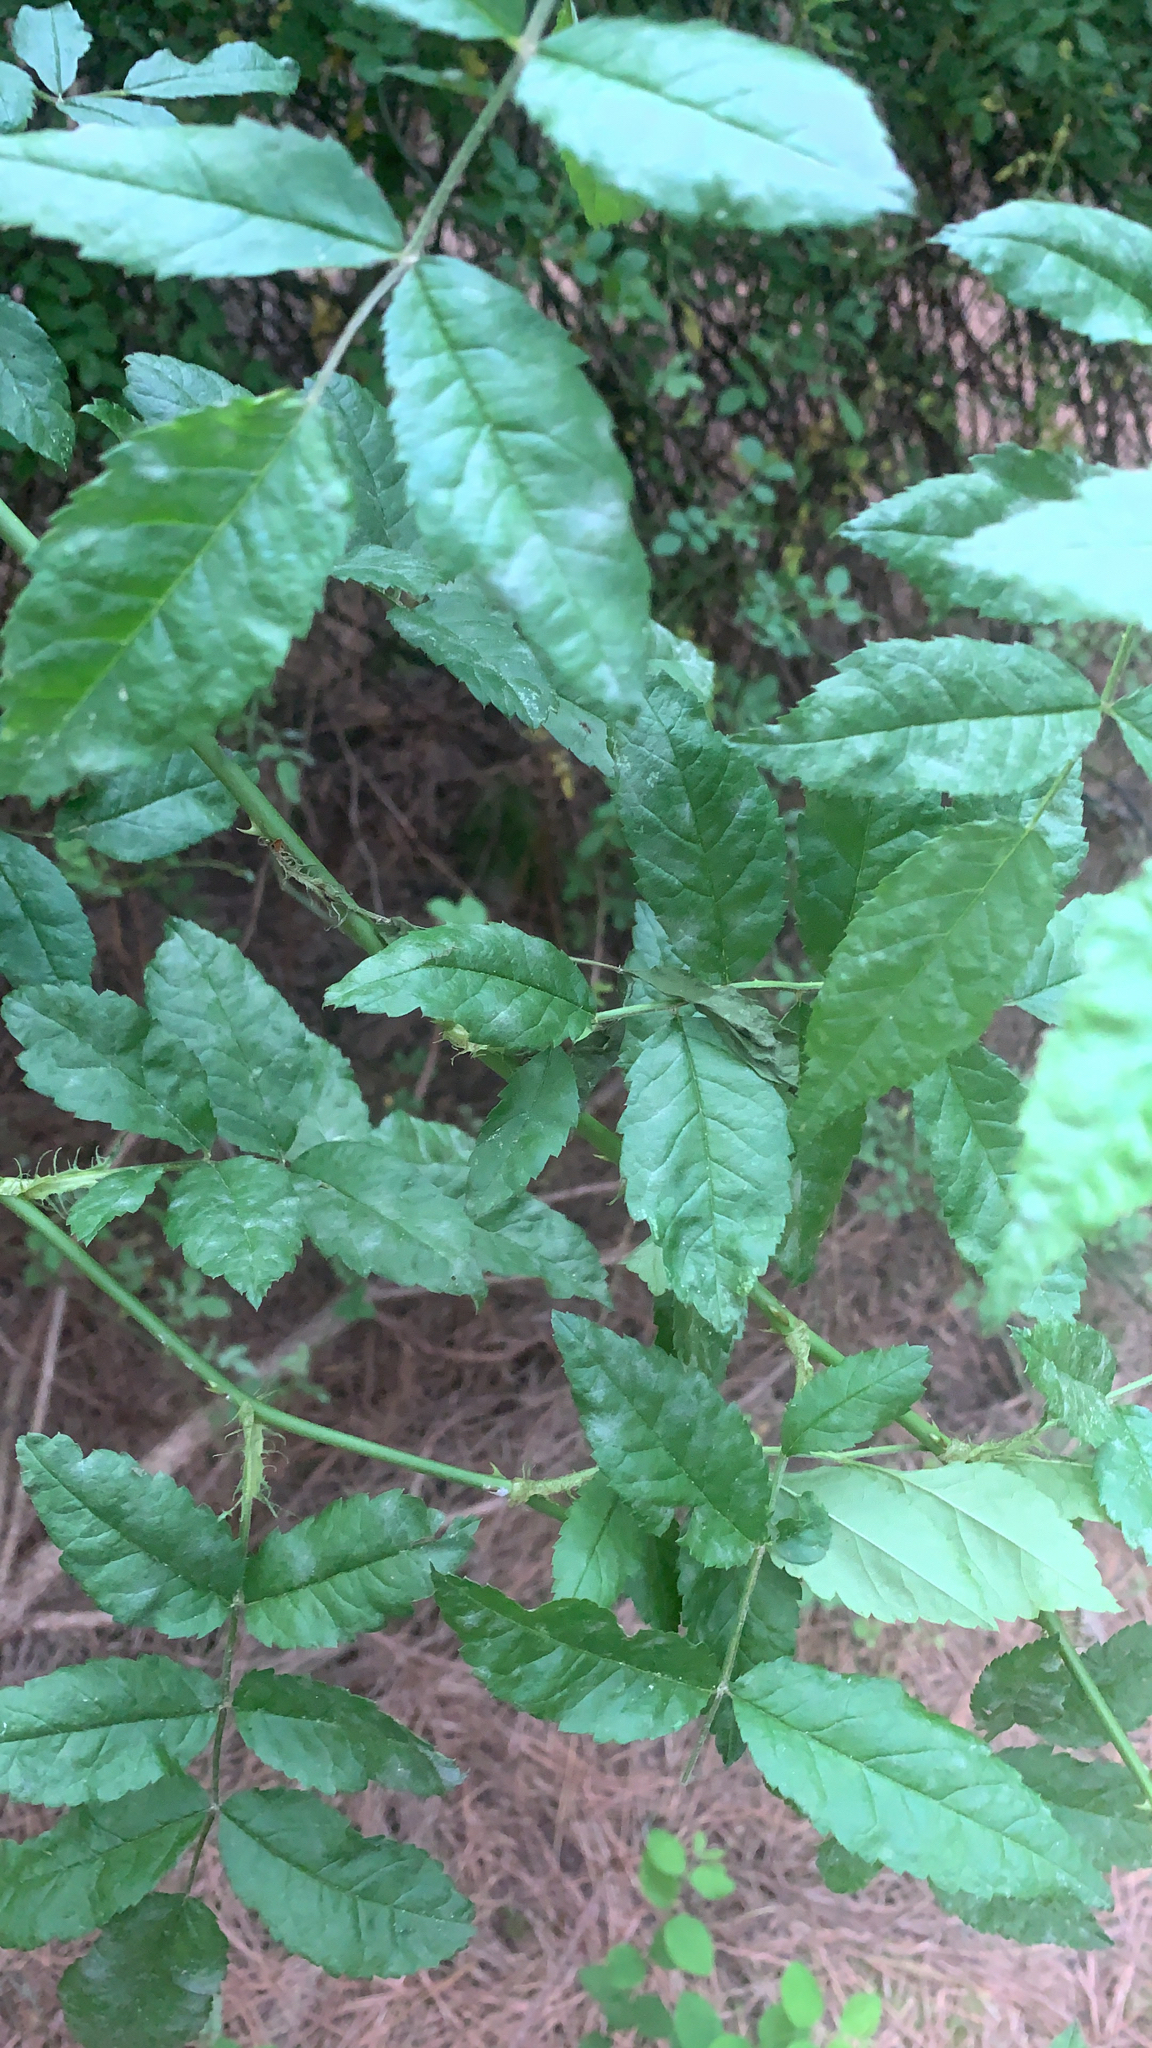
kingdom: Plantae
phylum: Tracheophyta
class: Magnoliopsida
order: Rosales
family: Rosaceae
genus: Rosa
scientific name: Rosa multiflora
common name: Multiflora rose
